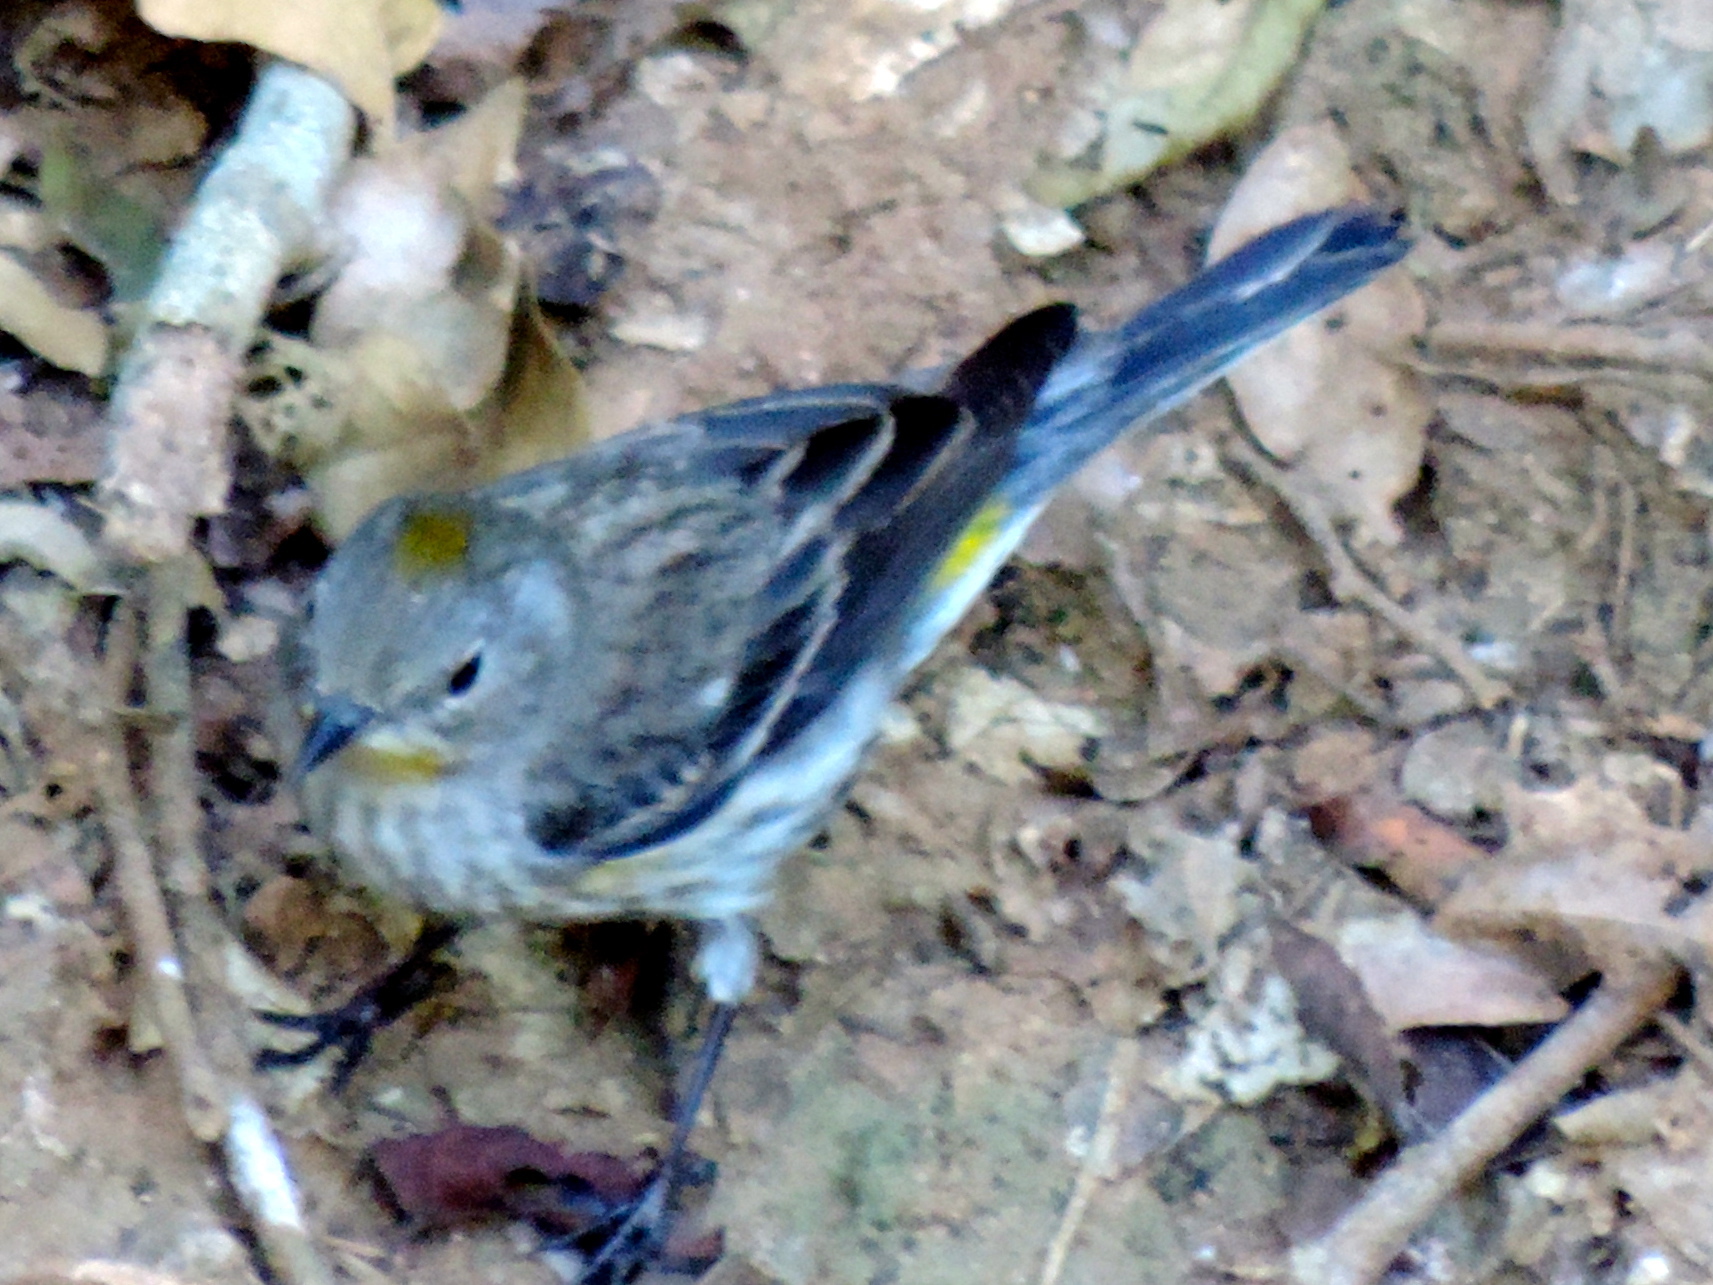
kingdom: Animalia
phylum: Chordata
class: Aves
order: Passeriformes
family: Parulidae
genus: Setophaga
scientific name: Setophaga coronata
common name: Myrtle warbler
